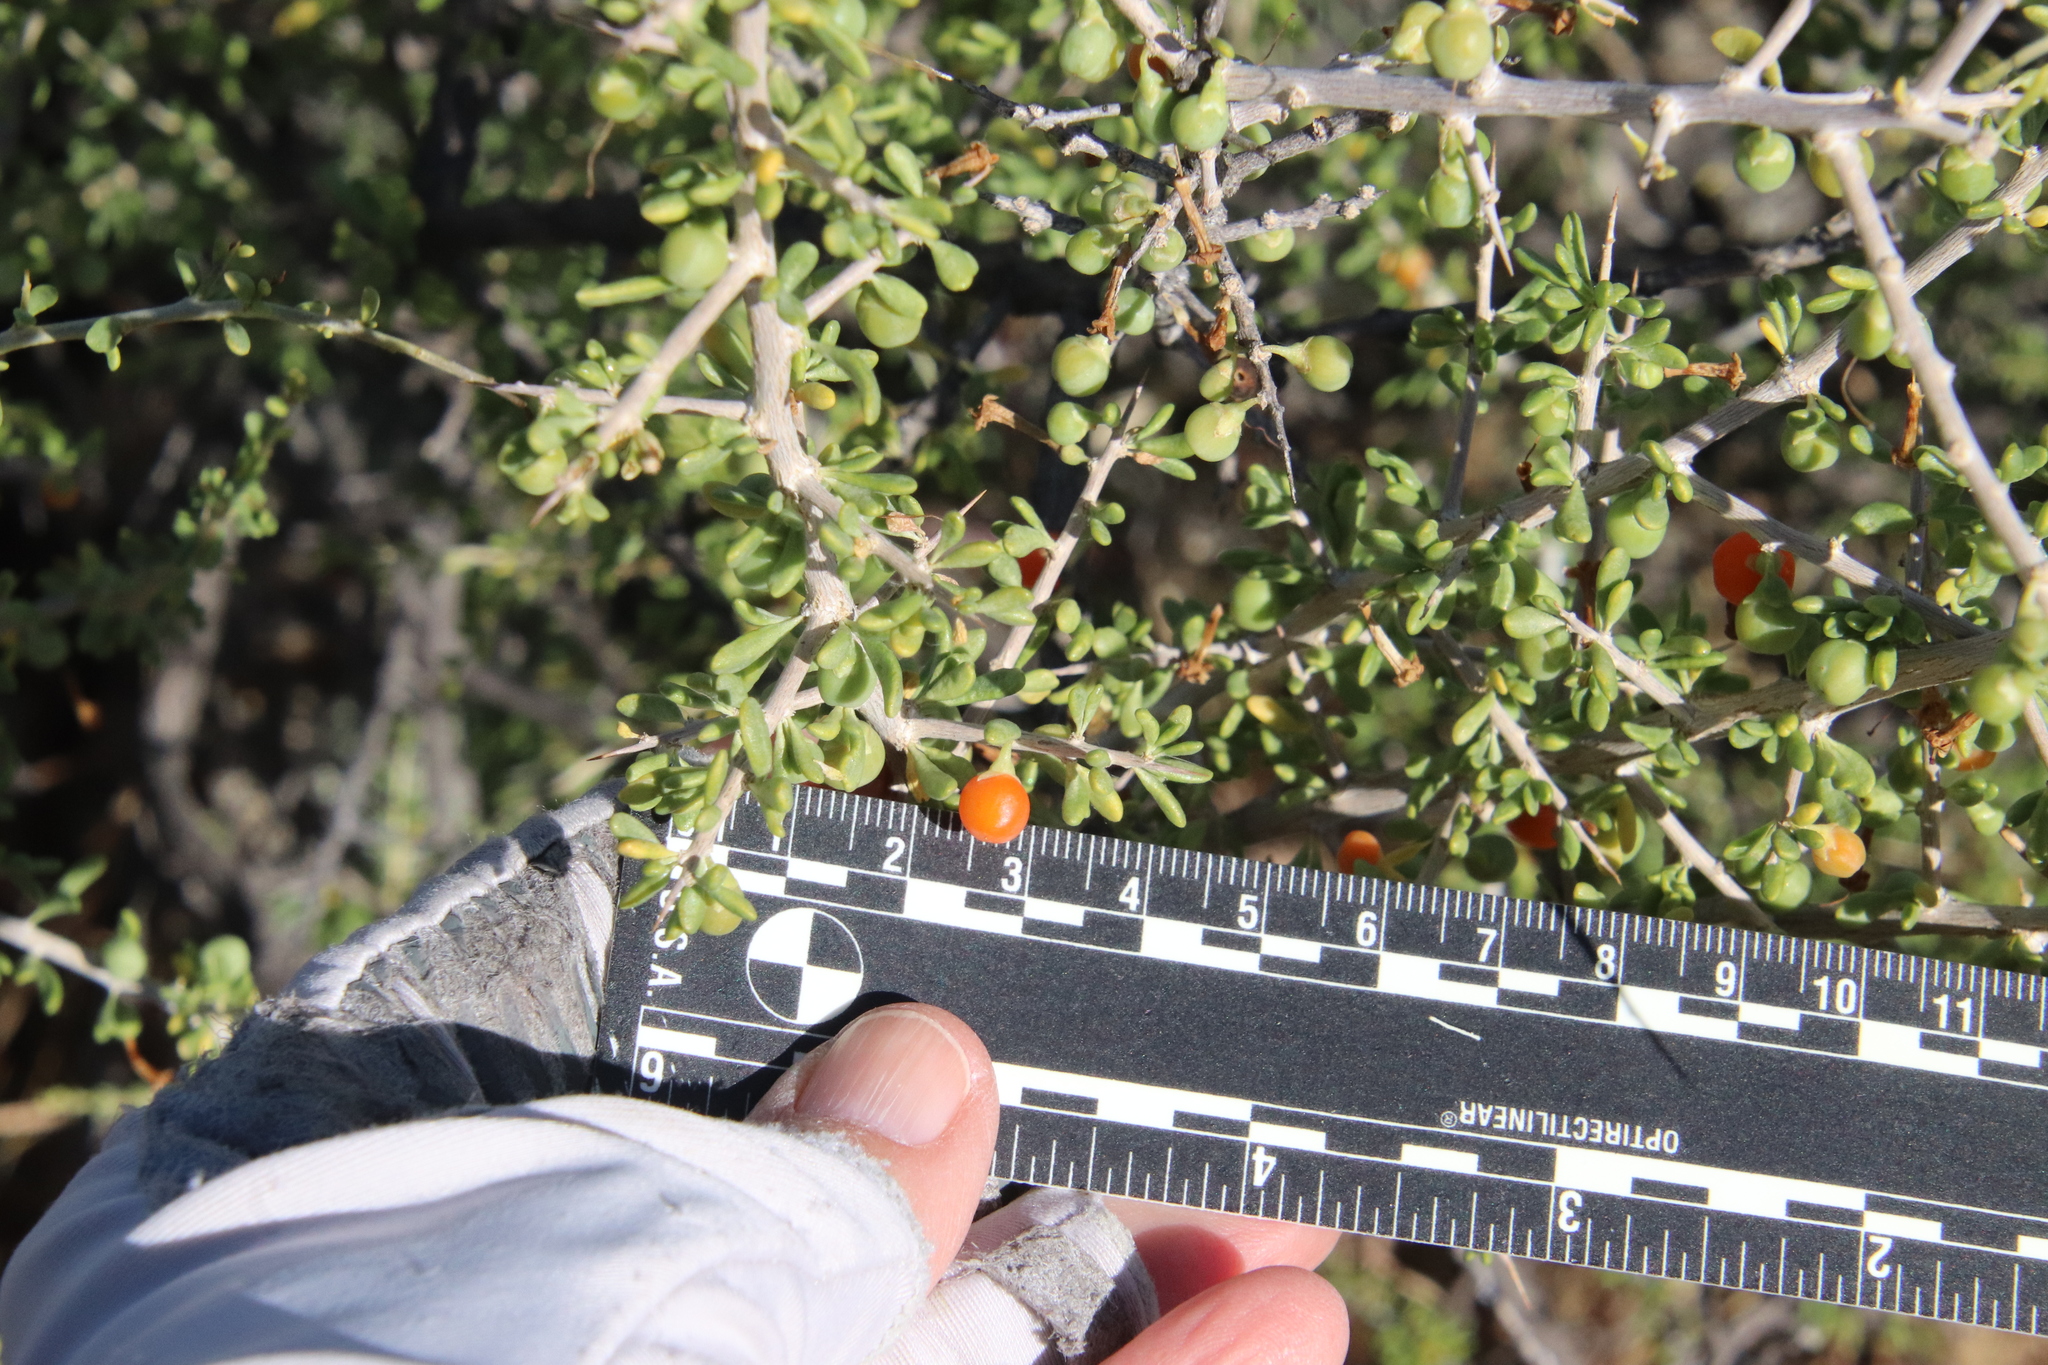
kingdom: Plantae
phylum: Tracheophyta
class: Magnoliopsida
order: Solanales
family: Solanaceae
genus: Lycium
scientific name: Lycium andersonii
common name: Water-jacket
